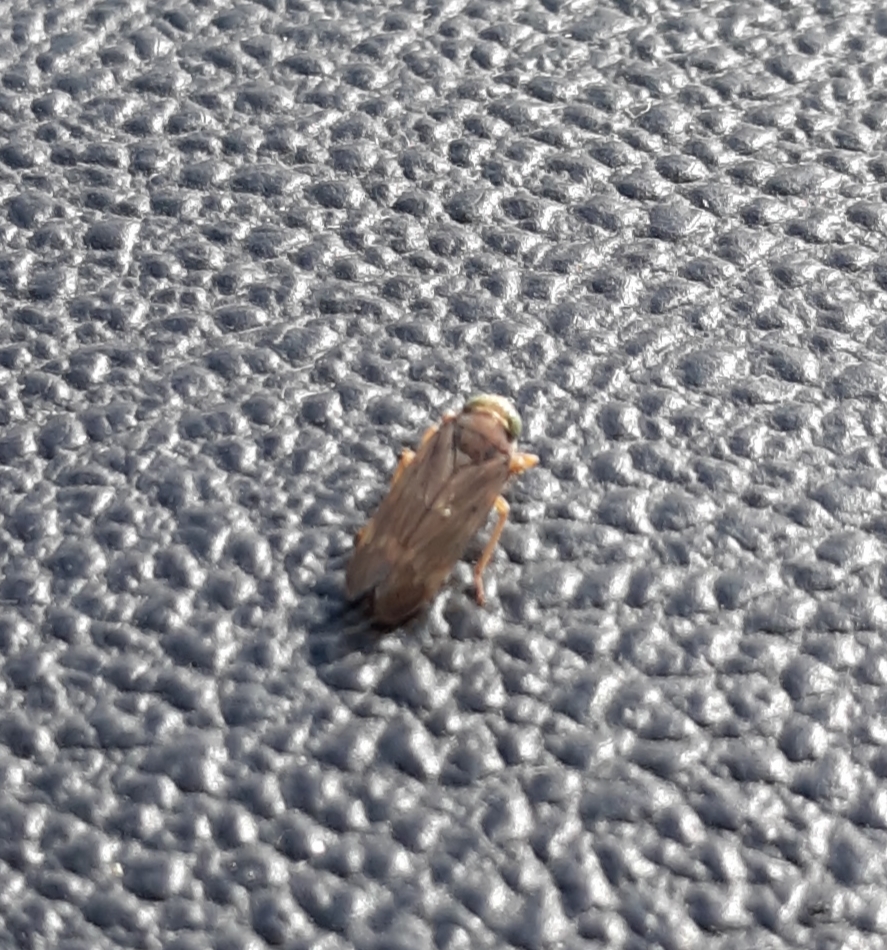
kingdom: Animalia
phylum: Arthropoda
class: Insecta
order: Hemiptera
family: Cicadellidae
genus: Jikradia
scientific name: Jikradia olitoria
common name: Coppery leafhopper
